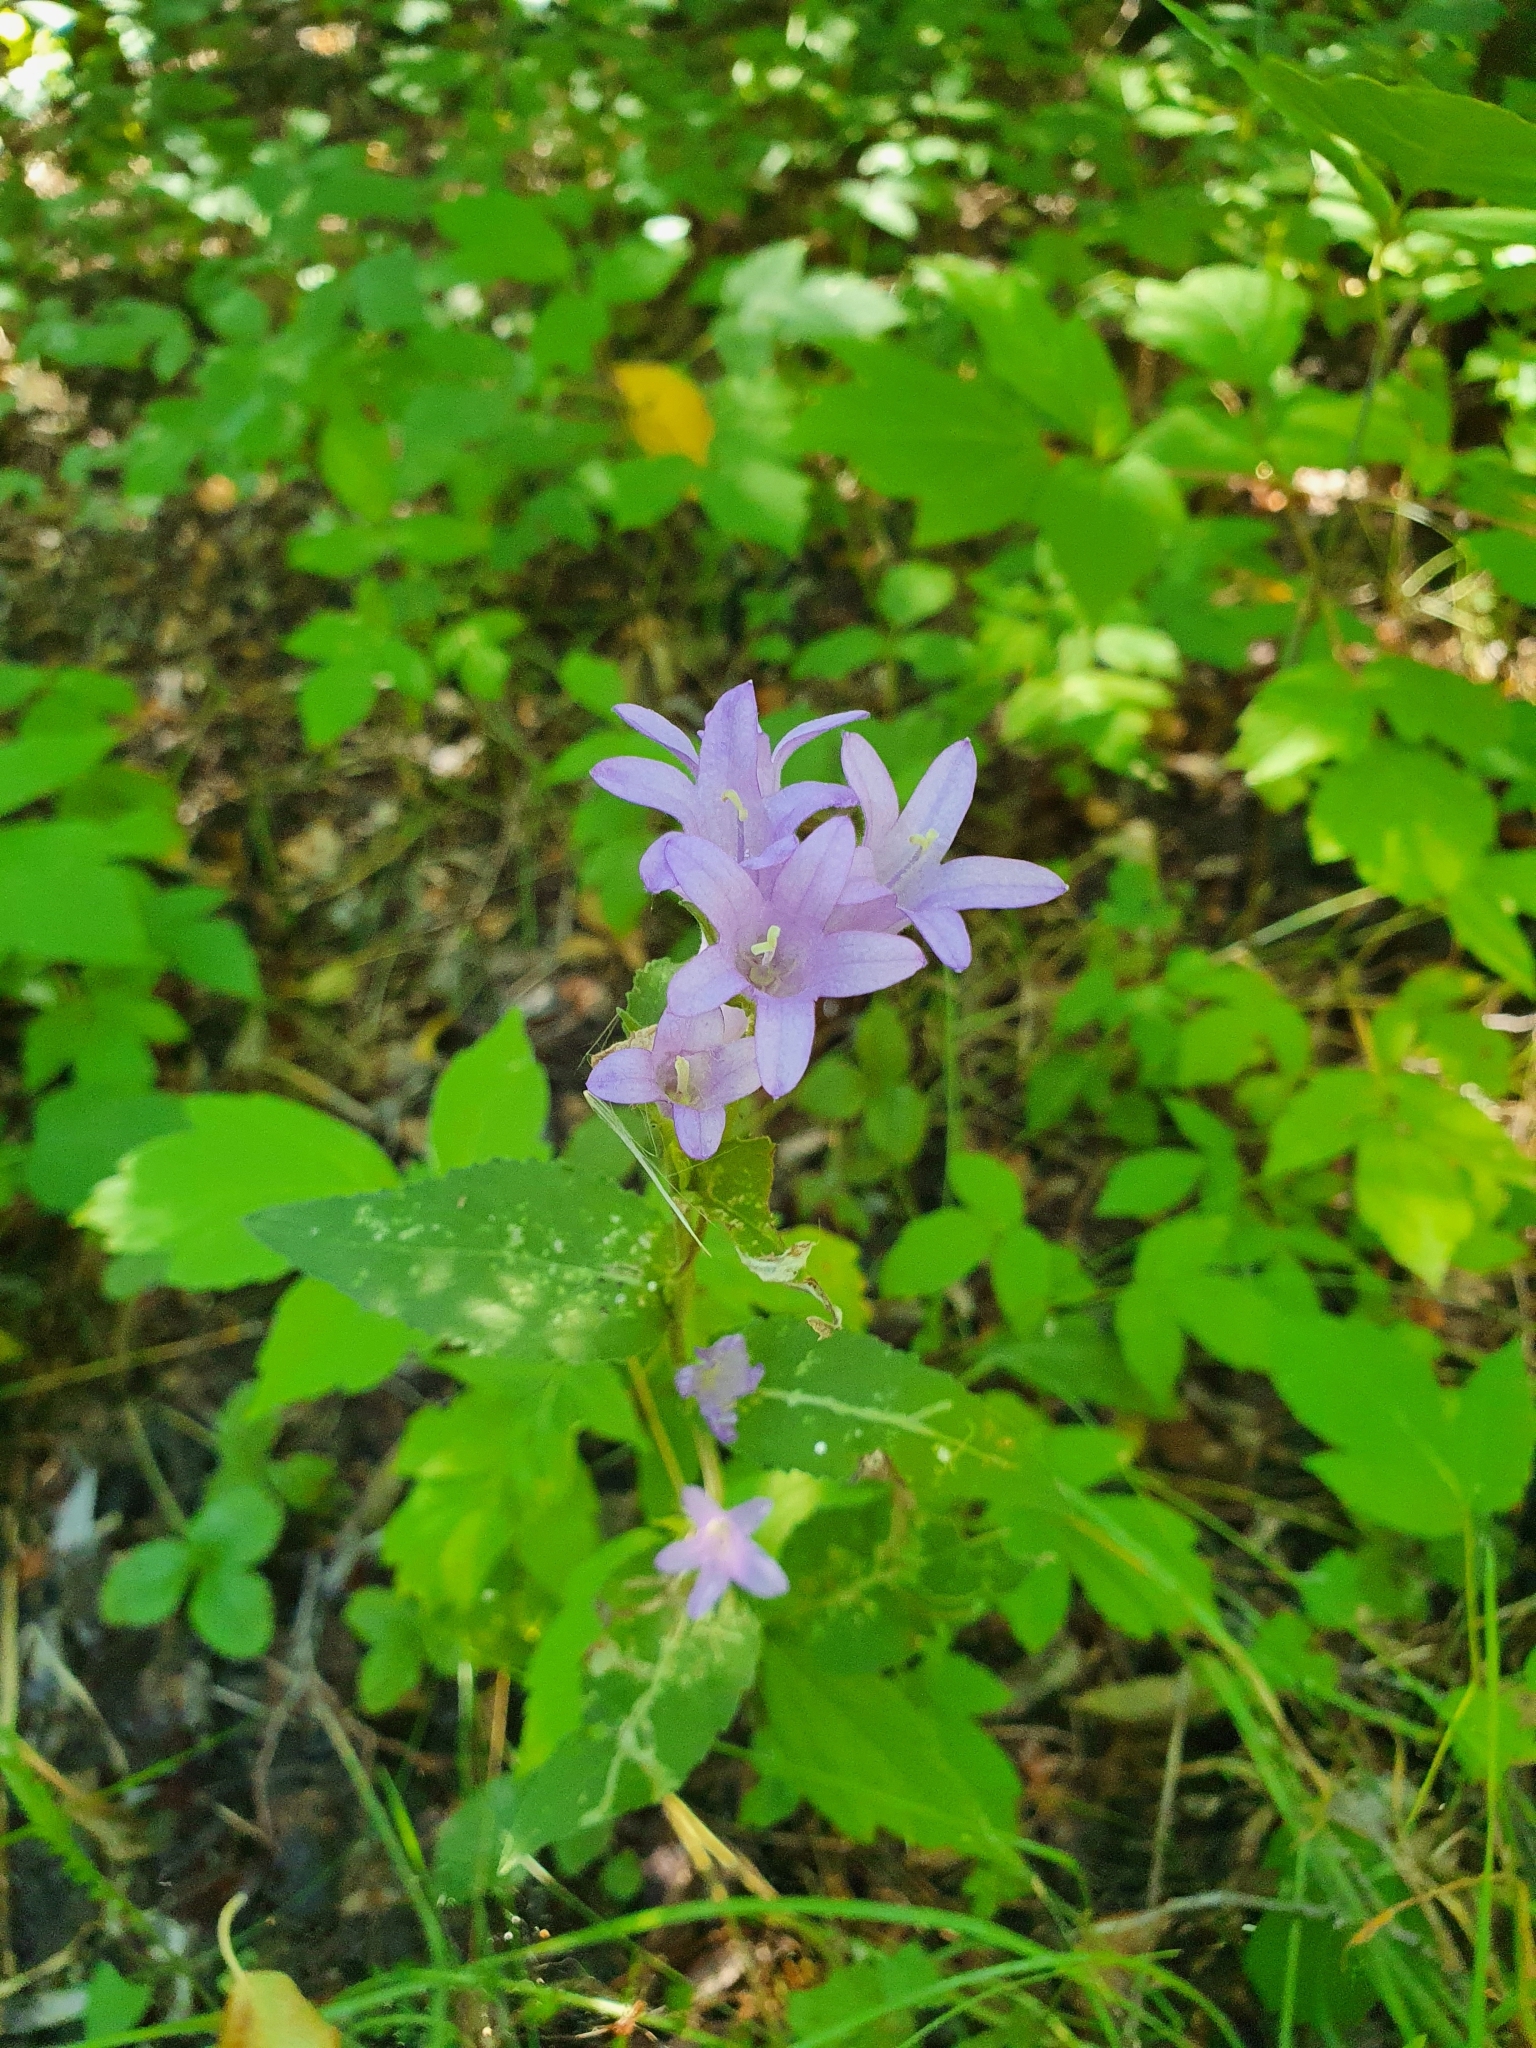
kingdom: Plantae
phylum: Tracheophyta
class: Magnoliopsida
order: Asterales
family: Campanulaceae
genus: Campanula
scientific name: Campanula glomerata
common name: Clustered bellflower
